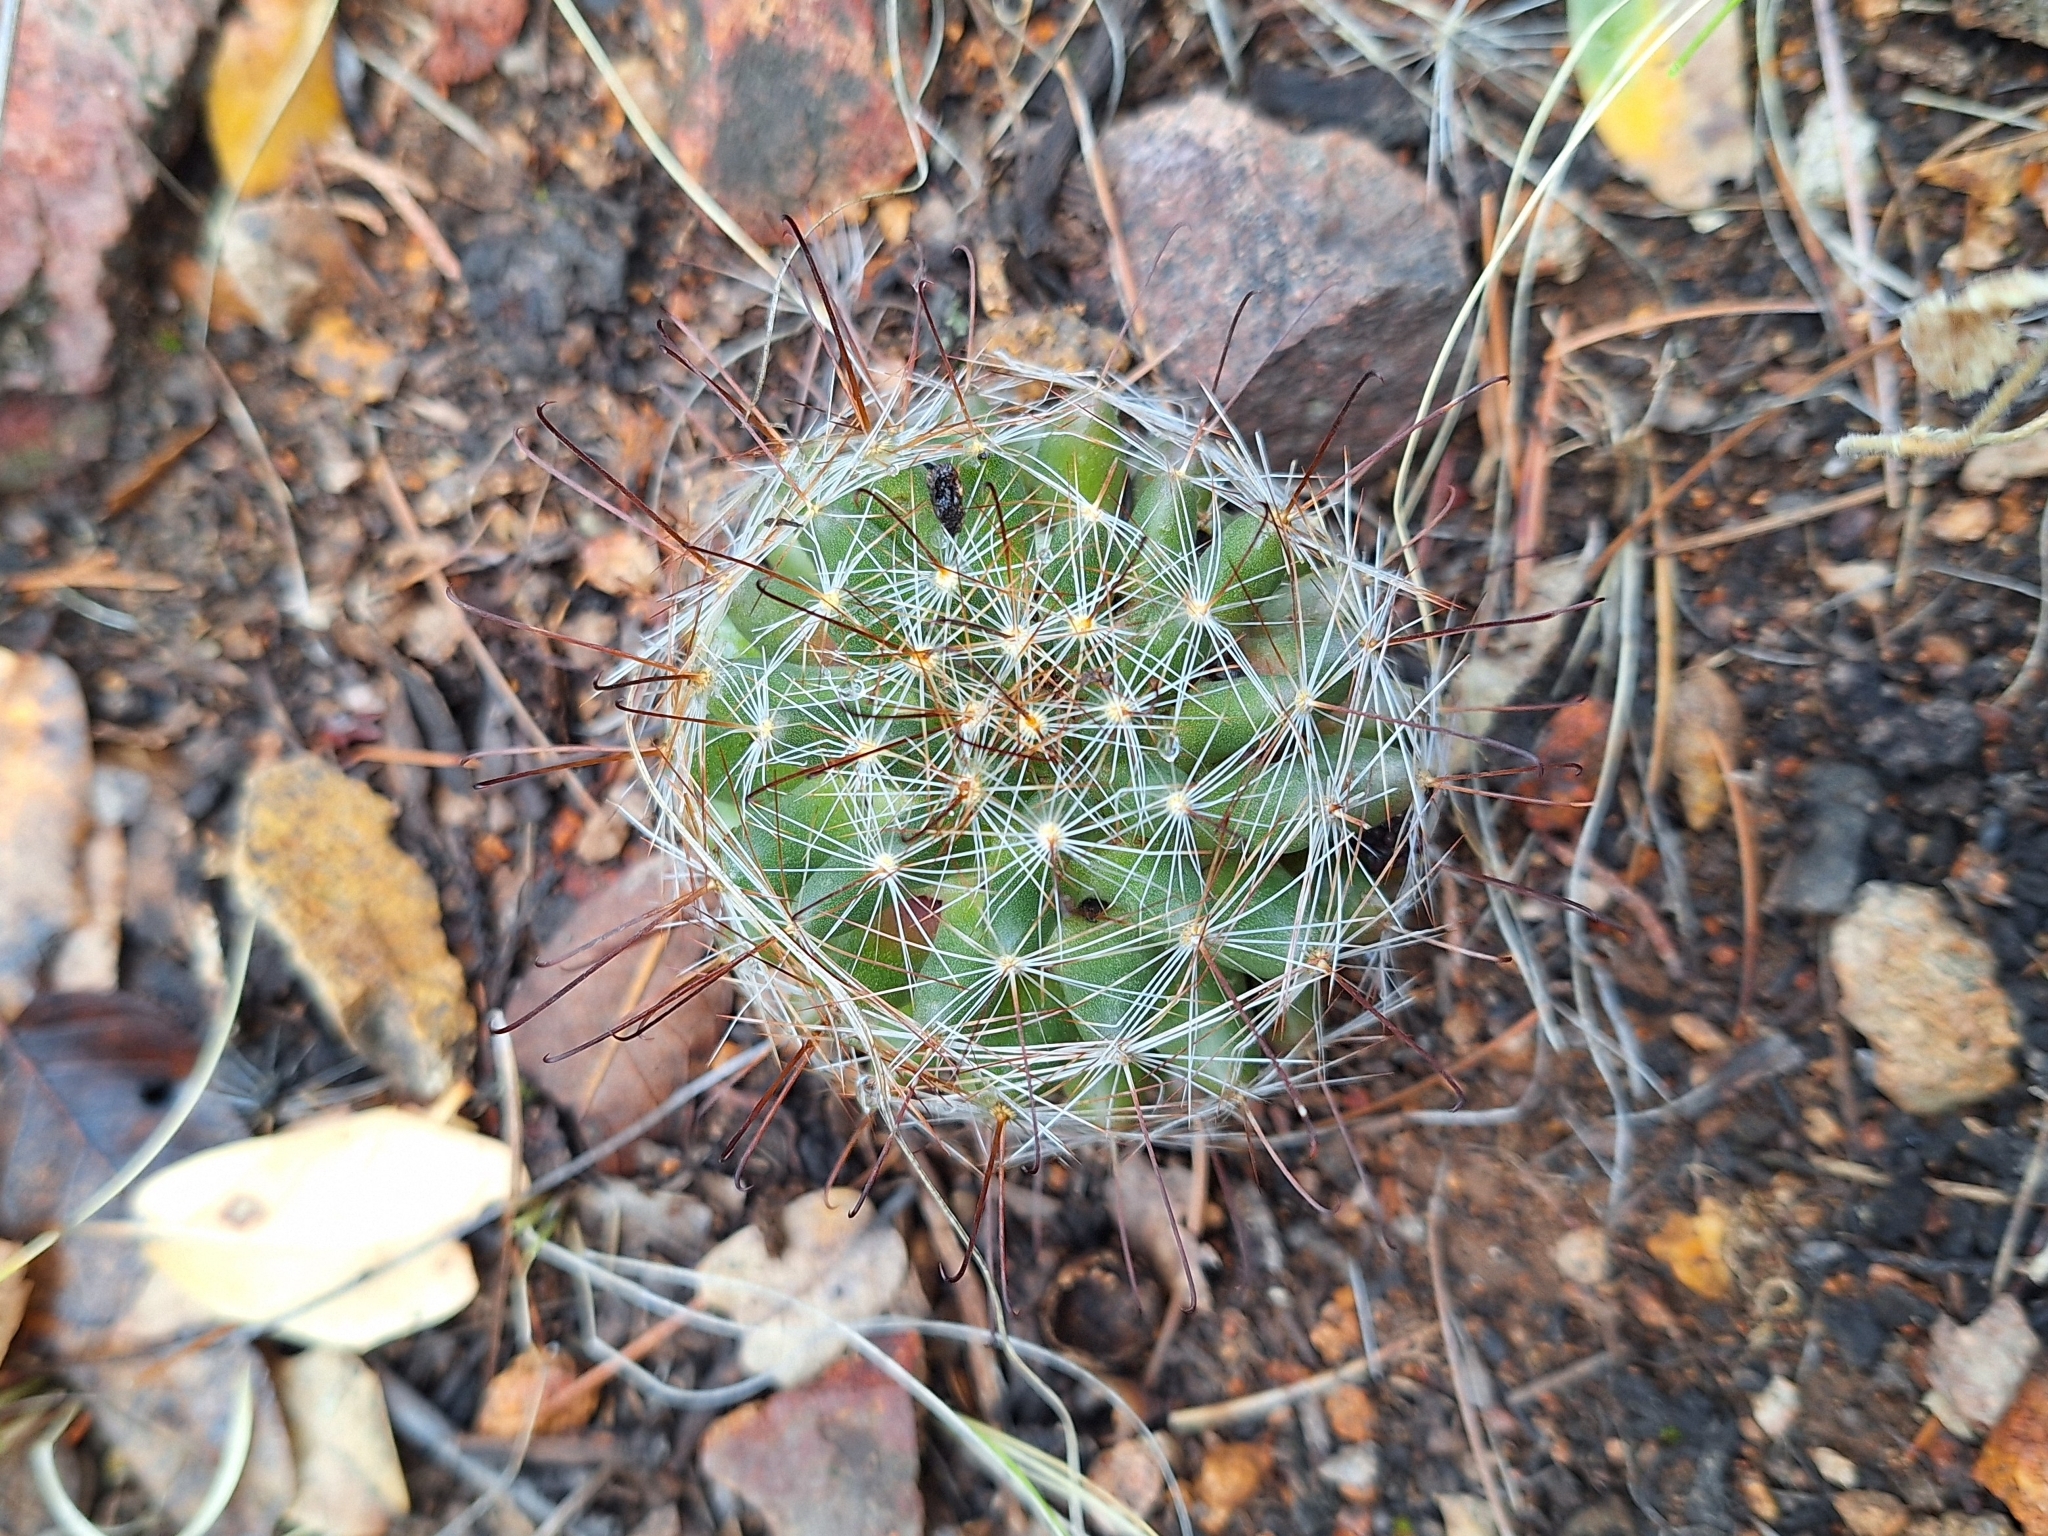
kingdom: Plantae
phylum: Tracheophyta
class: Magnoliopsida
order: Caryophyllales
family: Cactaceae
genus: Cochemiea
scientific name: Cochemiea wrightii
